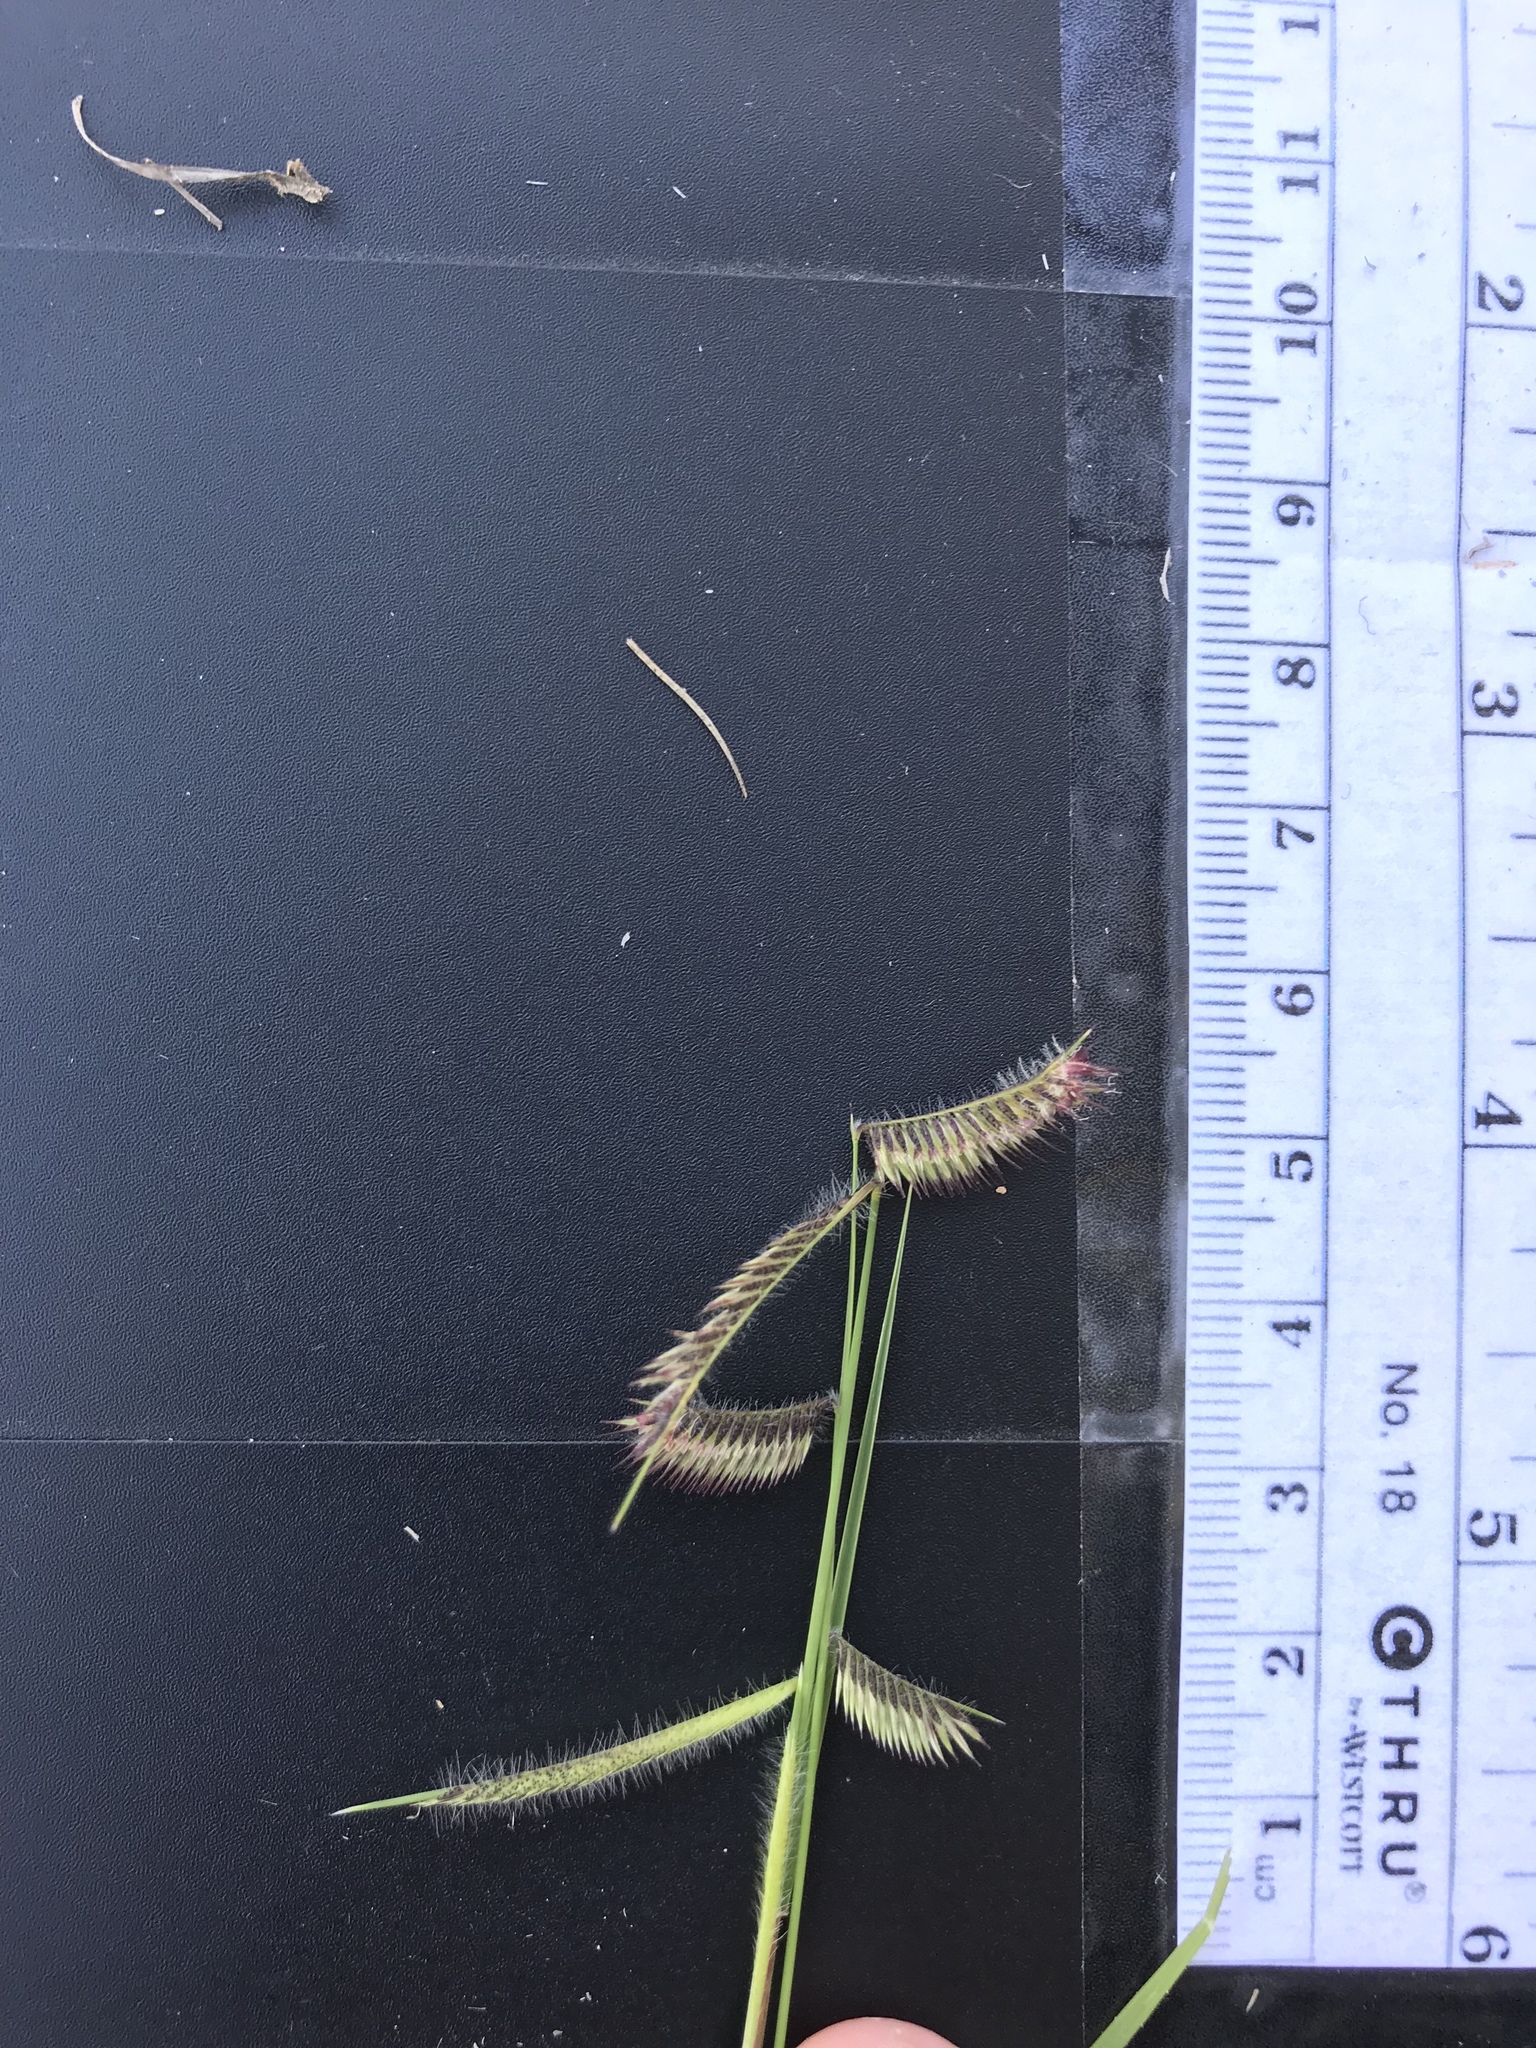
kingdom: Plantae
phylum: Tracheophyta
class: Liliopsida
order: Poales
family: Poaceae
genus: Bouteloua
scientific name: Bouteloua hirsuta
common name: Hairy grama
